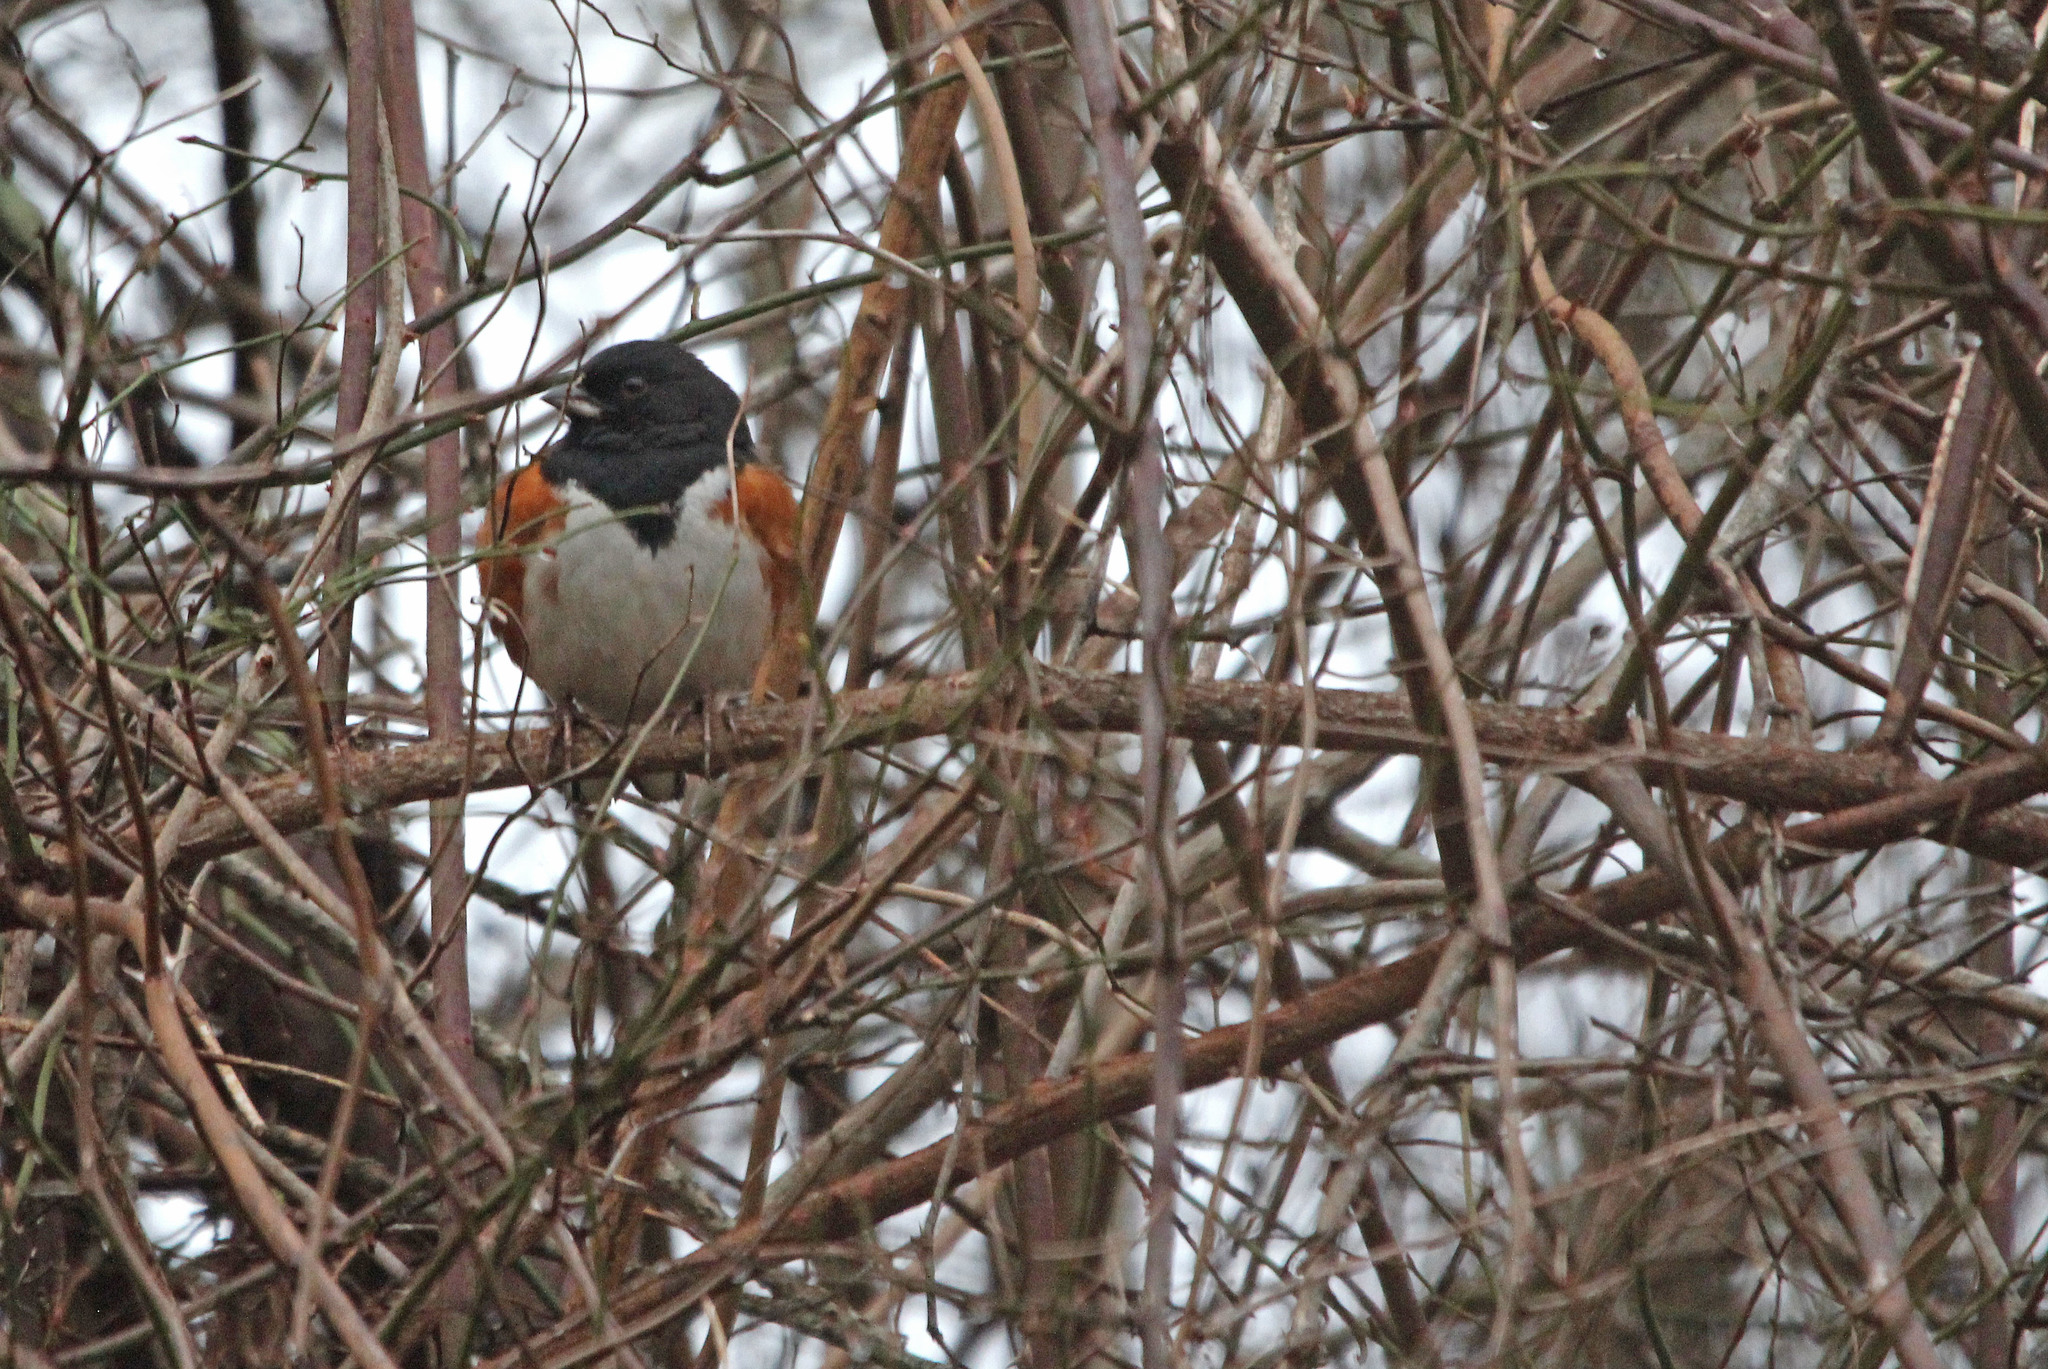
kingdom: Animalia
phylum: Chordata
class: Aves
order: Passeriformes
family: Passerellidae
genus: Pipilo
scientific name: Pipilo erythrophthalmus
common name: Eastern towhee
